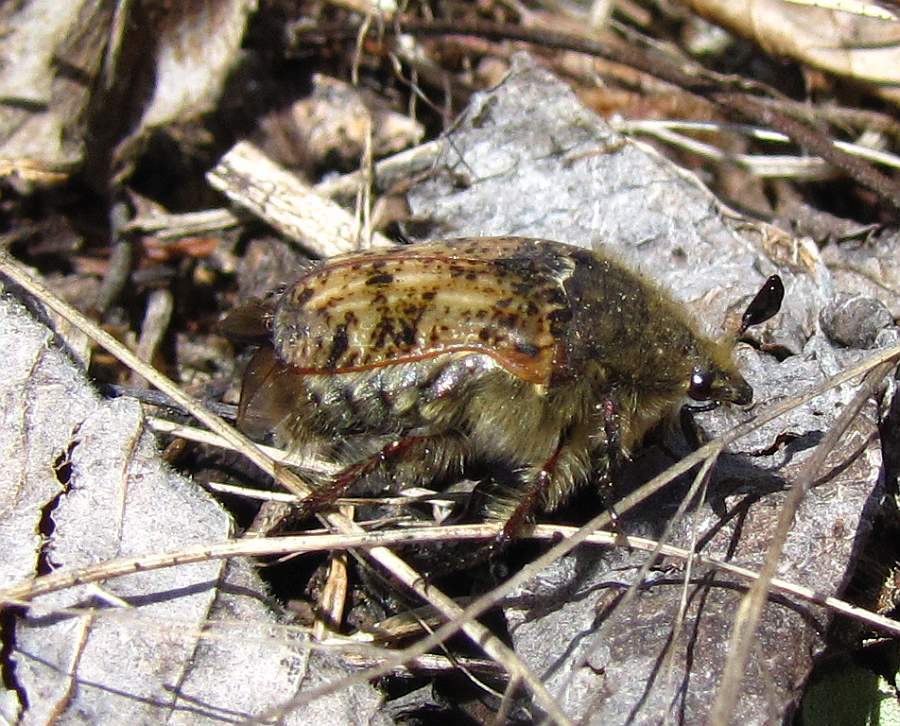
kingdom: Animalia
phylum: Arthropoda
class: Insecta
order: Coleoptera
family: Scarabaeidae
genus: Euphoria
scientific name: Euphoria inda
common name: Bumble flower beetle
